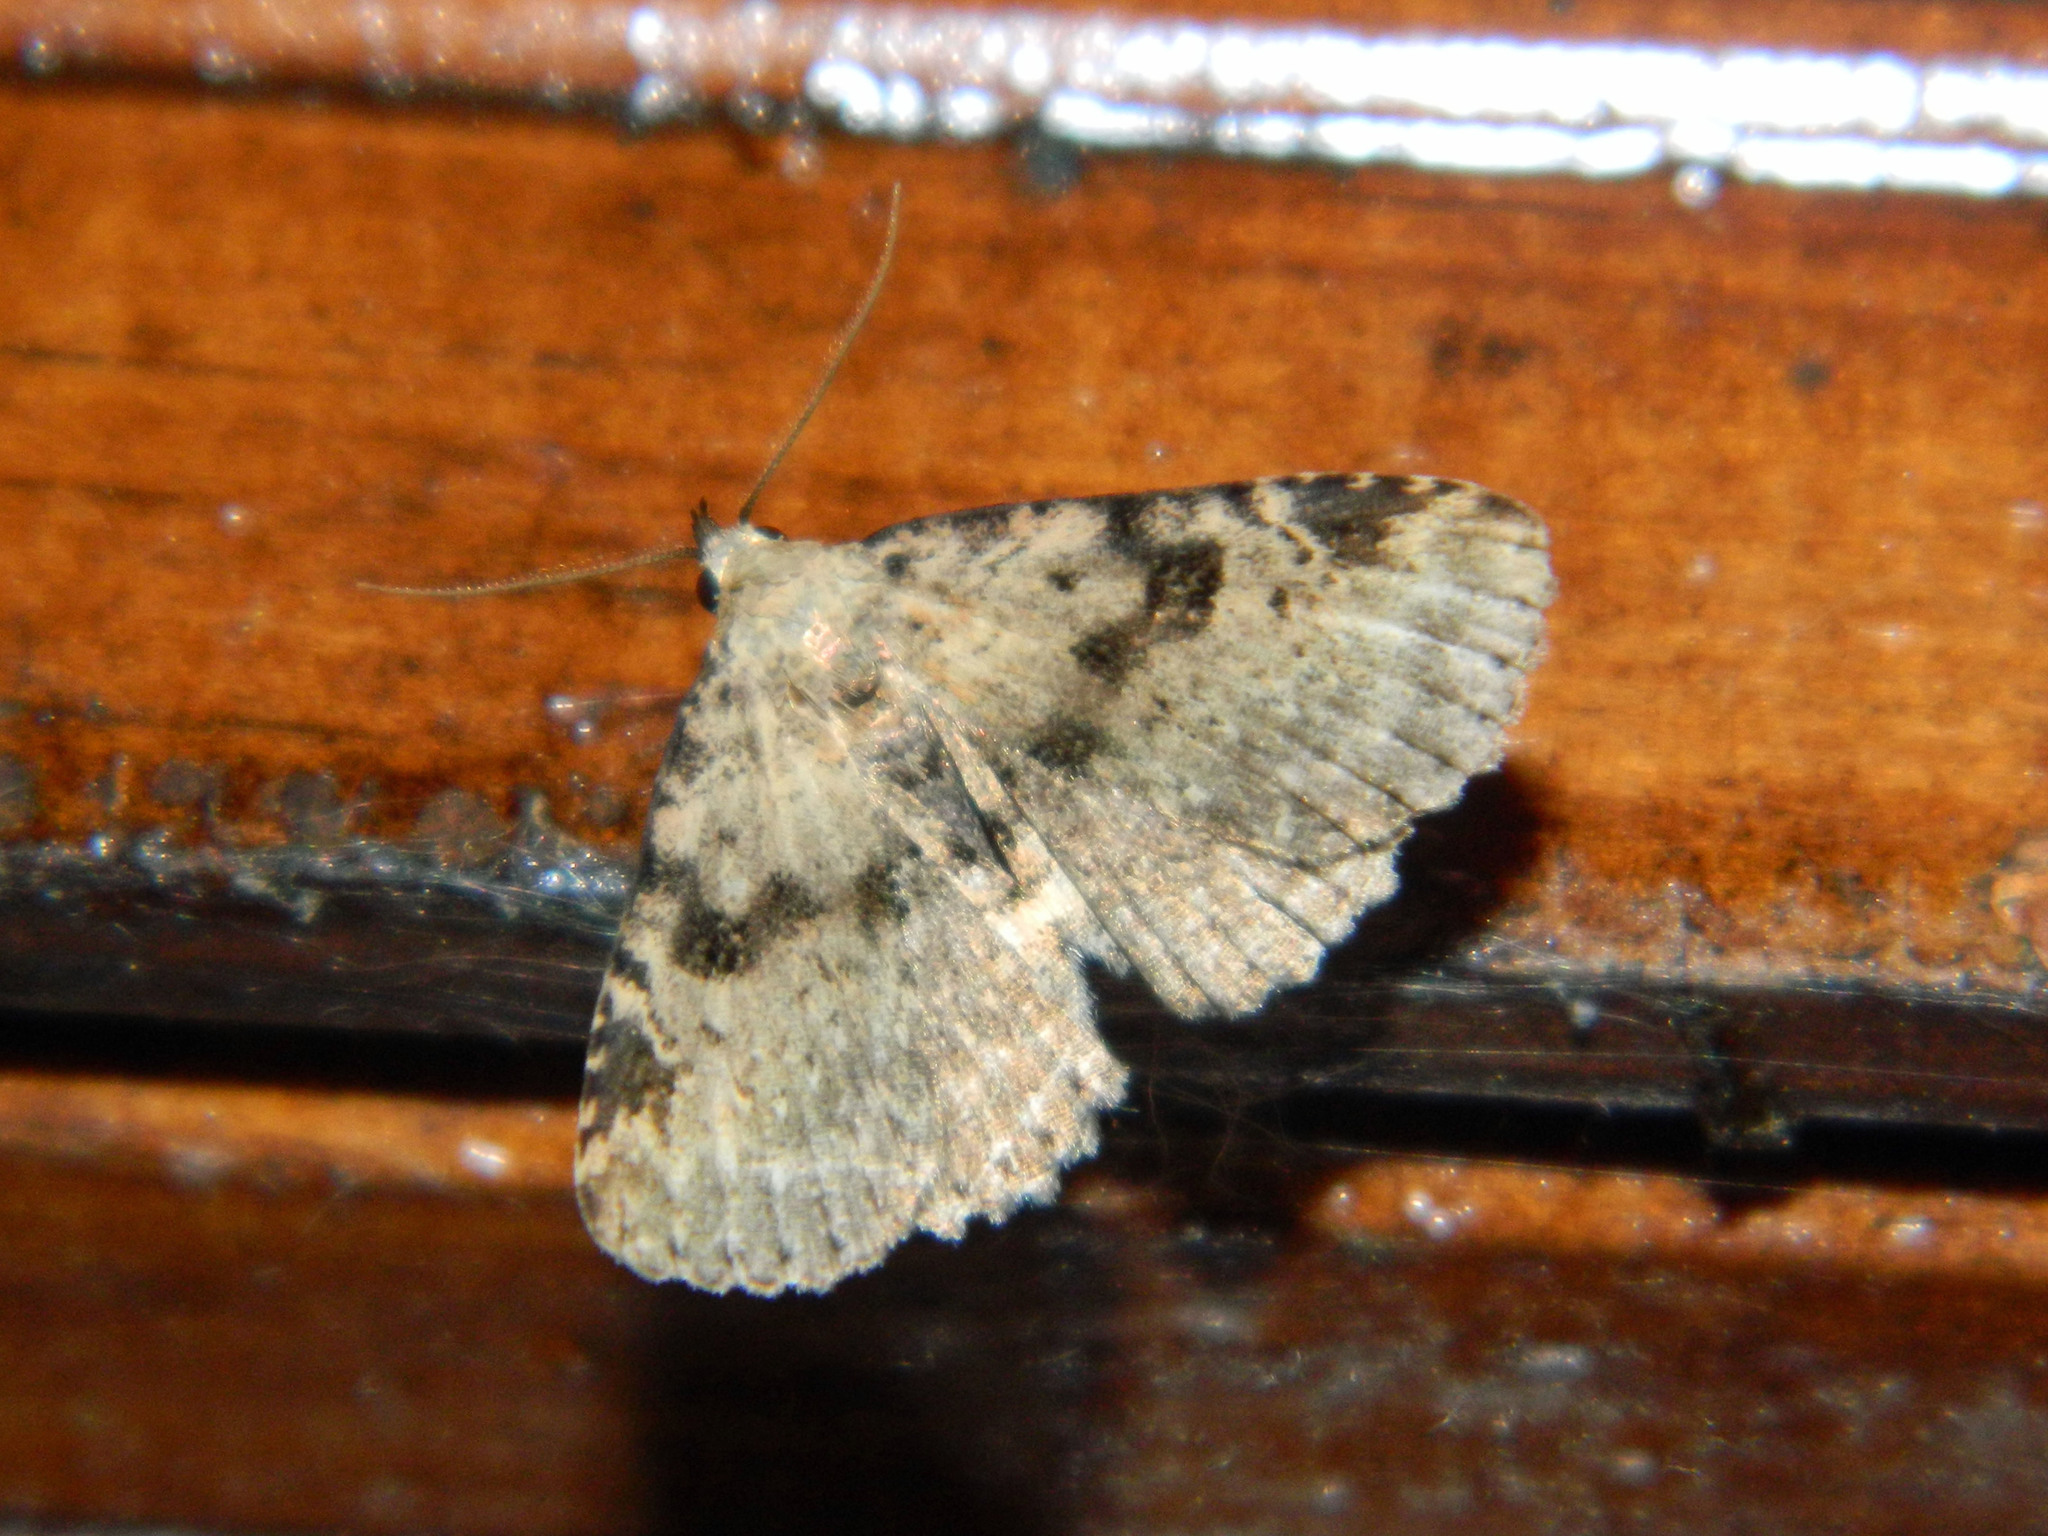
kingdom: Animalia
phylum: Arthropoda
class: Insecta
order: Lepidoptera
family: Erebidae
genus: Metalectra
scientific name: Metalectra quadrisignata
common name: Four-spotted fungus moth
